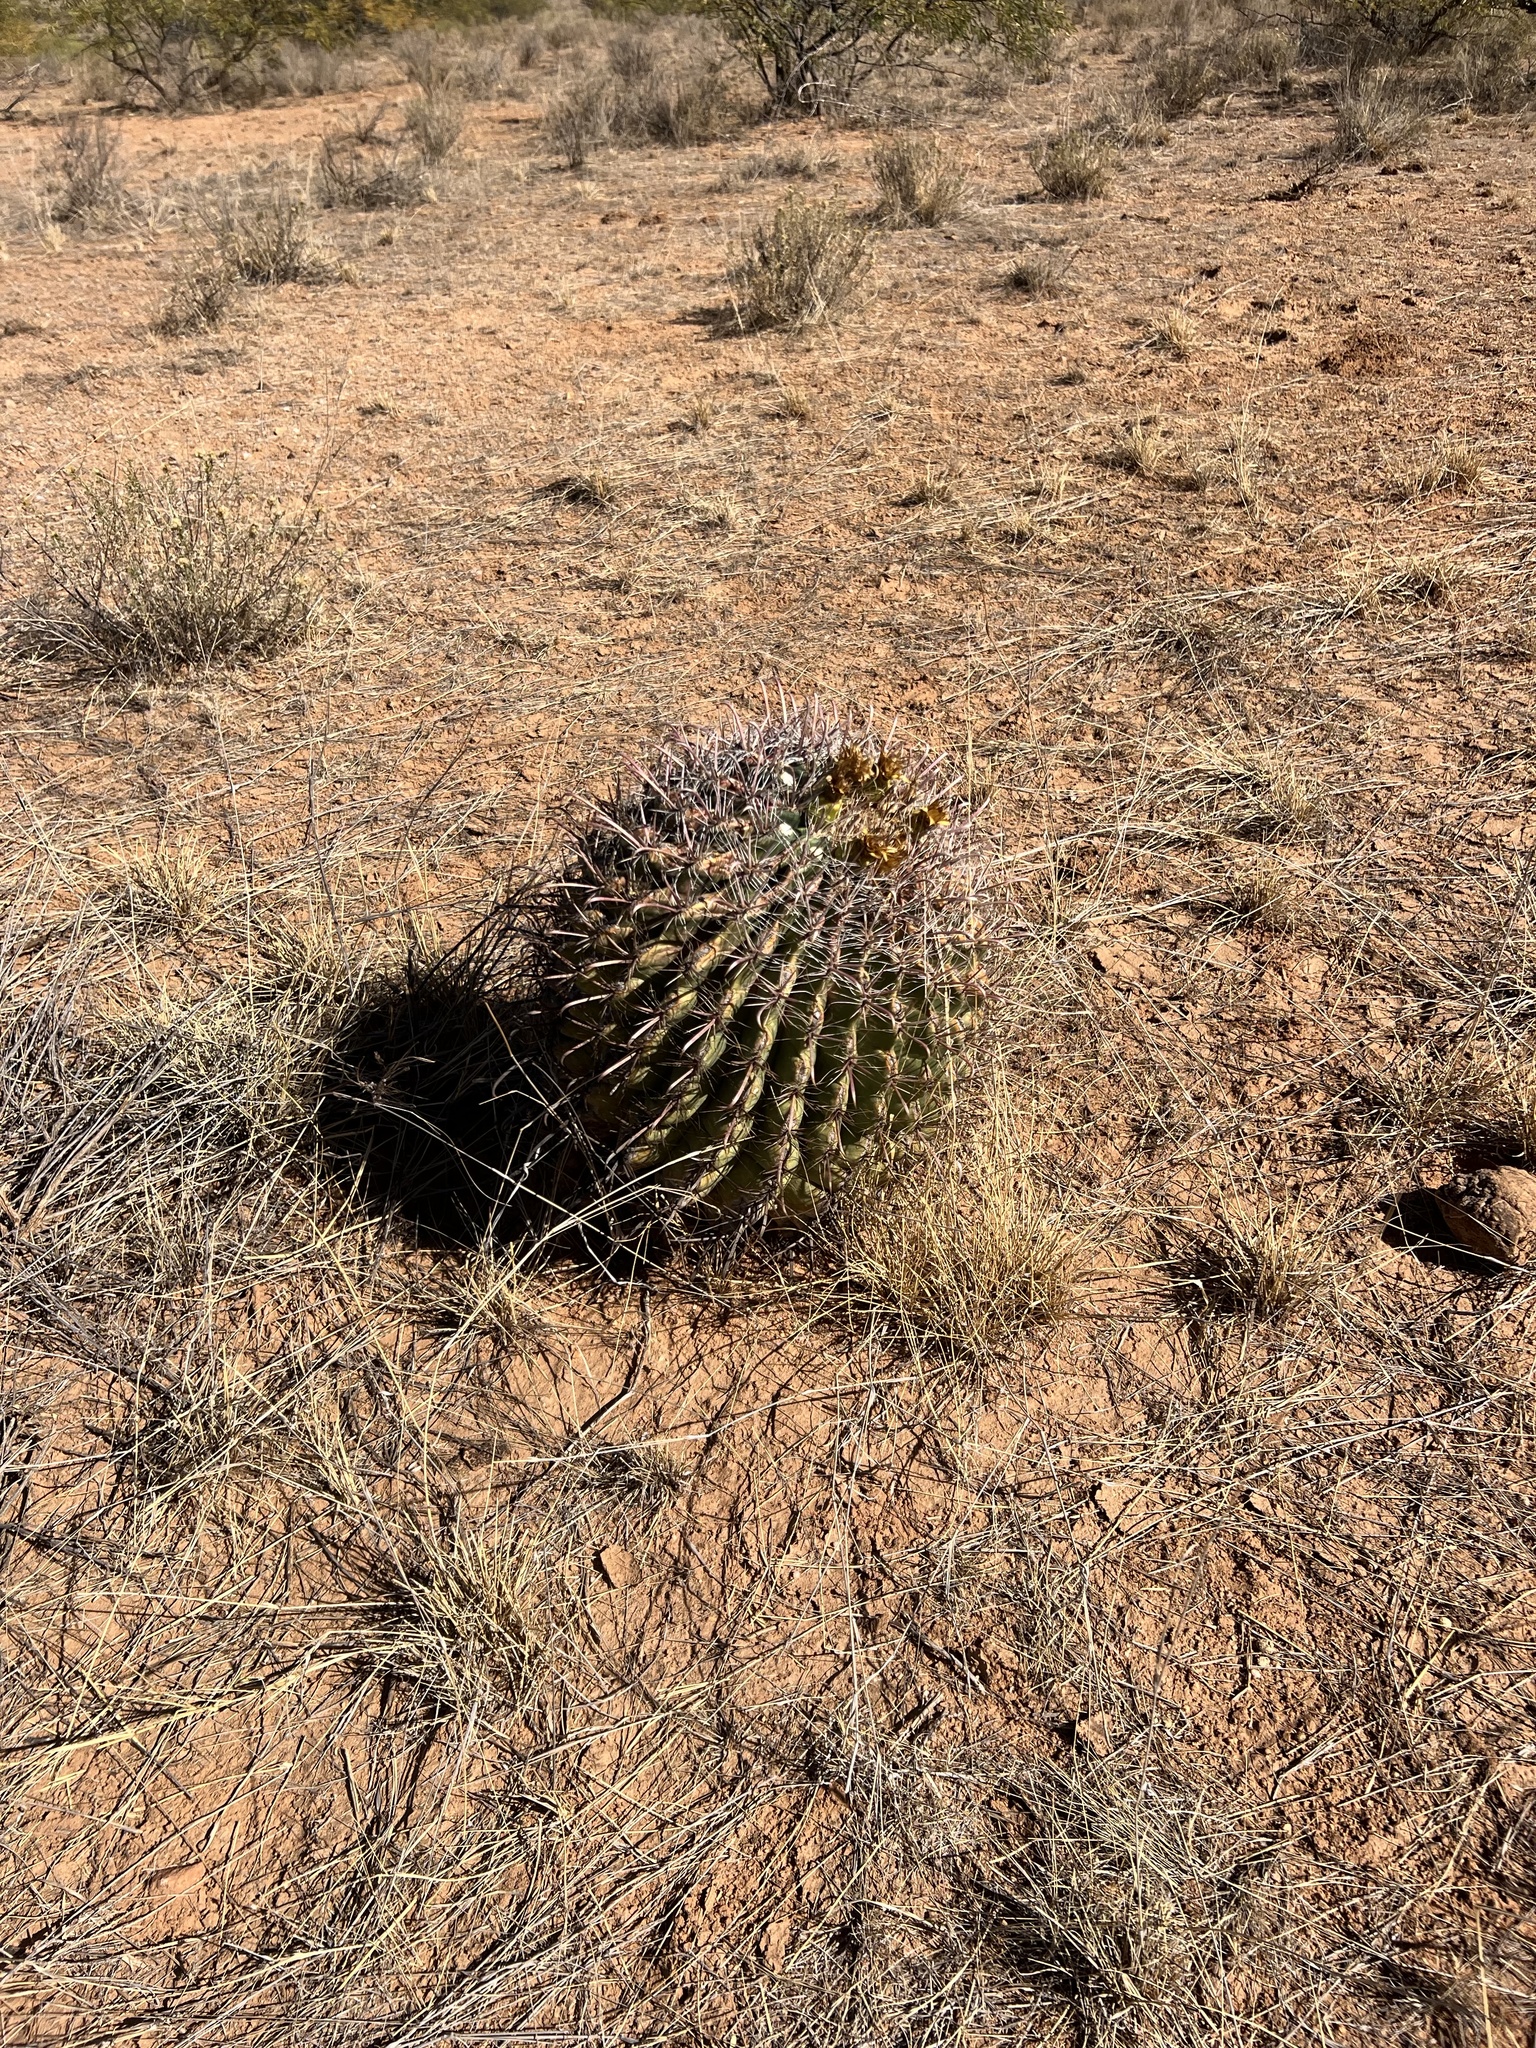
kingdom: Plantae
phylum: Tracheophyta
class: Magnoliopsida
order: Caryophyllales
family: Cactaceae
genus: Ferocactus
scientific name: Ferocactus wislizeni
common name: Candy barrel cactus
